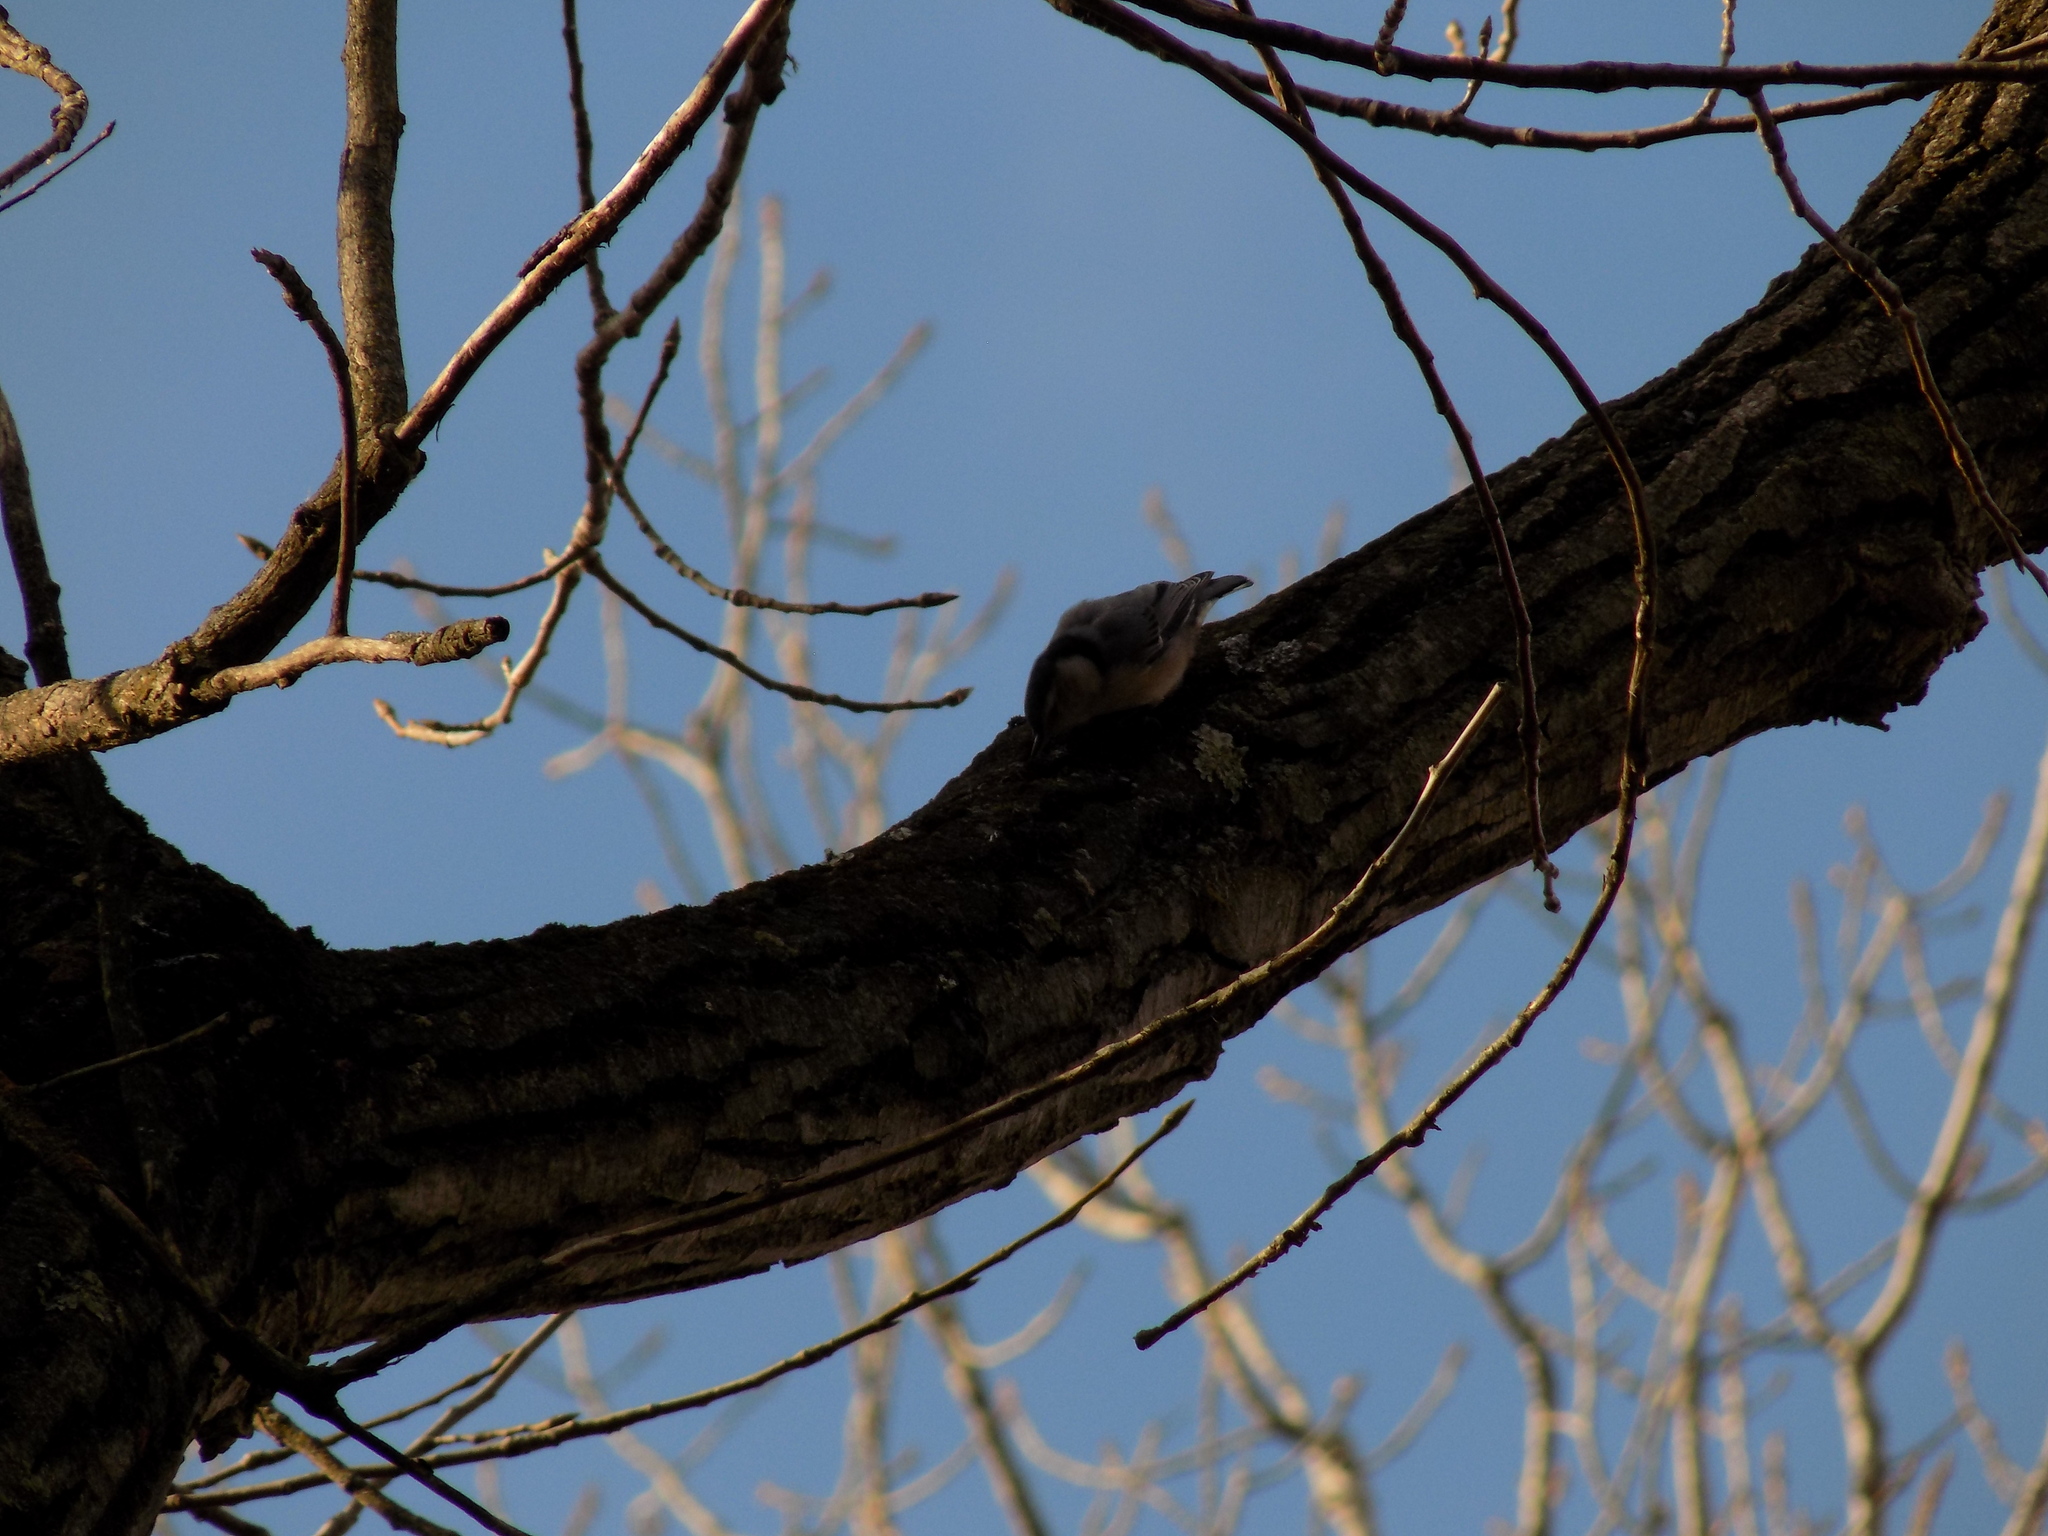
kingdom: Animalia
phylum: Chordata
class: Aves
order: Passeriformes
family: Sittidae
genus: Sitta
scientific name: Sitta carolinensis
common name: White-breasted nuthatch
